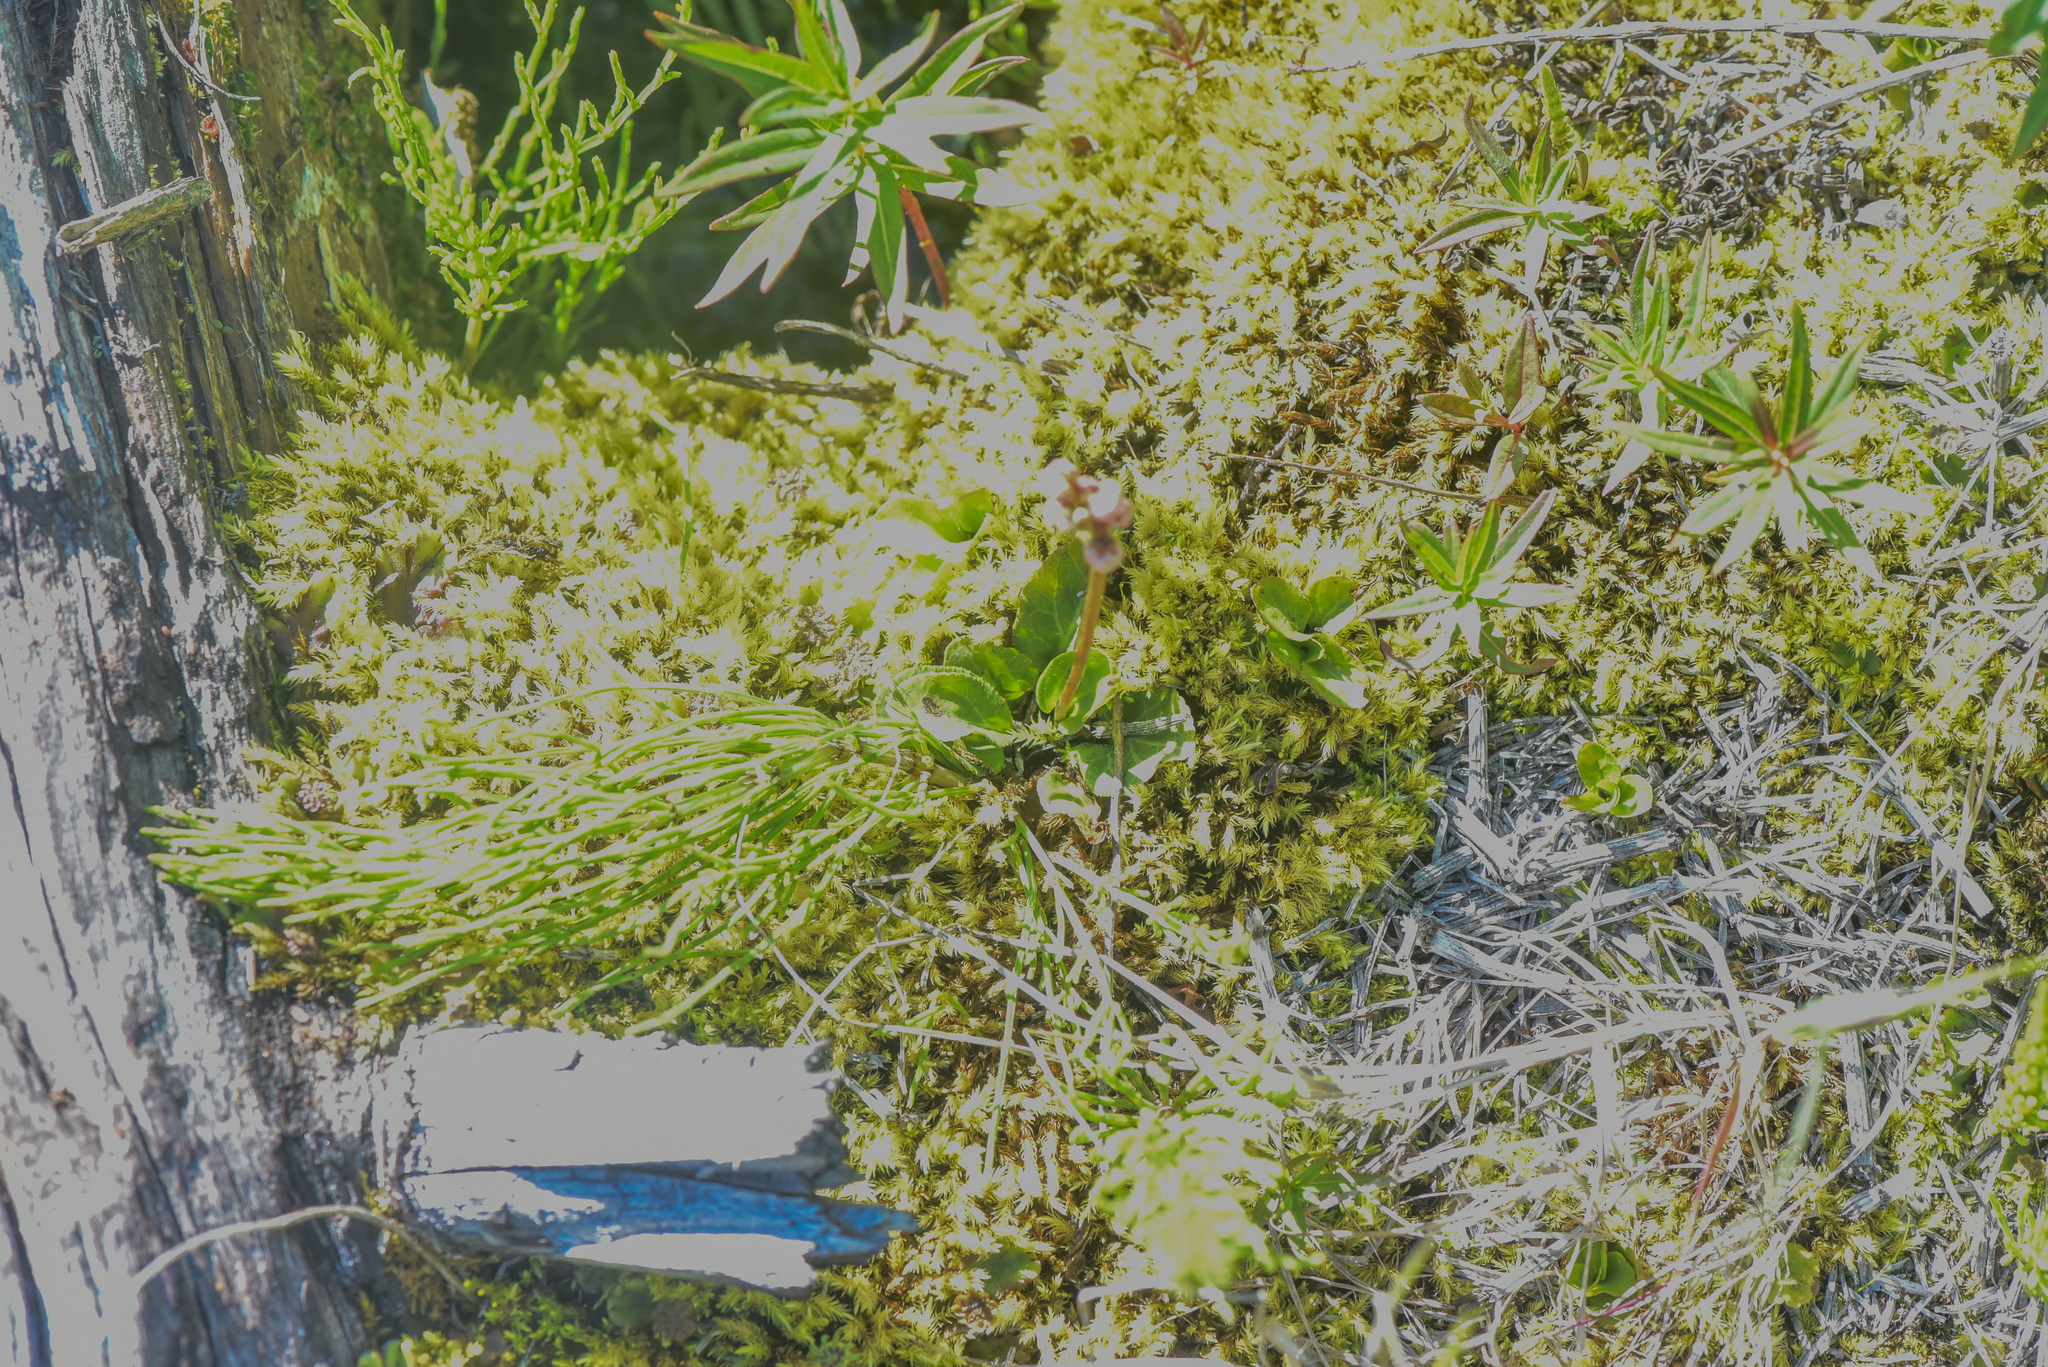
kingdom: Plantae
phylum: Tracheophyta
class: Magnoliopsida
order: Ericales
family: Ericaceae
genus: Pyrola
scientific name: Pyrola minor
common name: Common wintergreen
